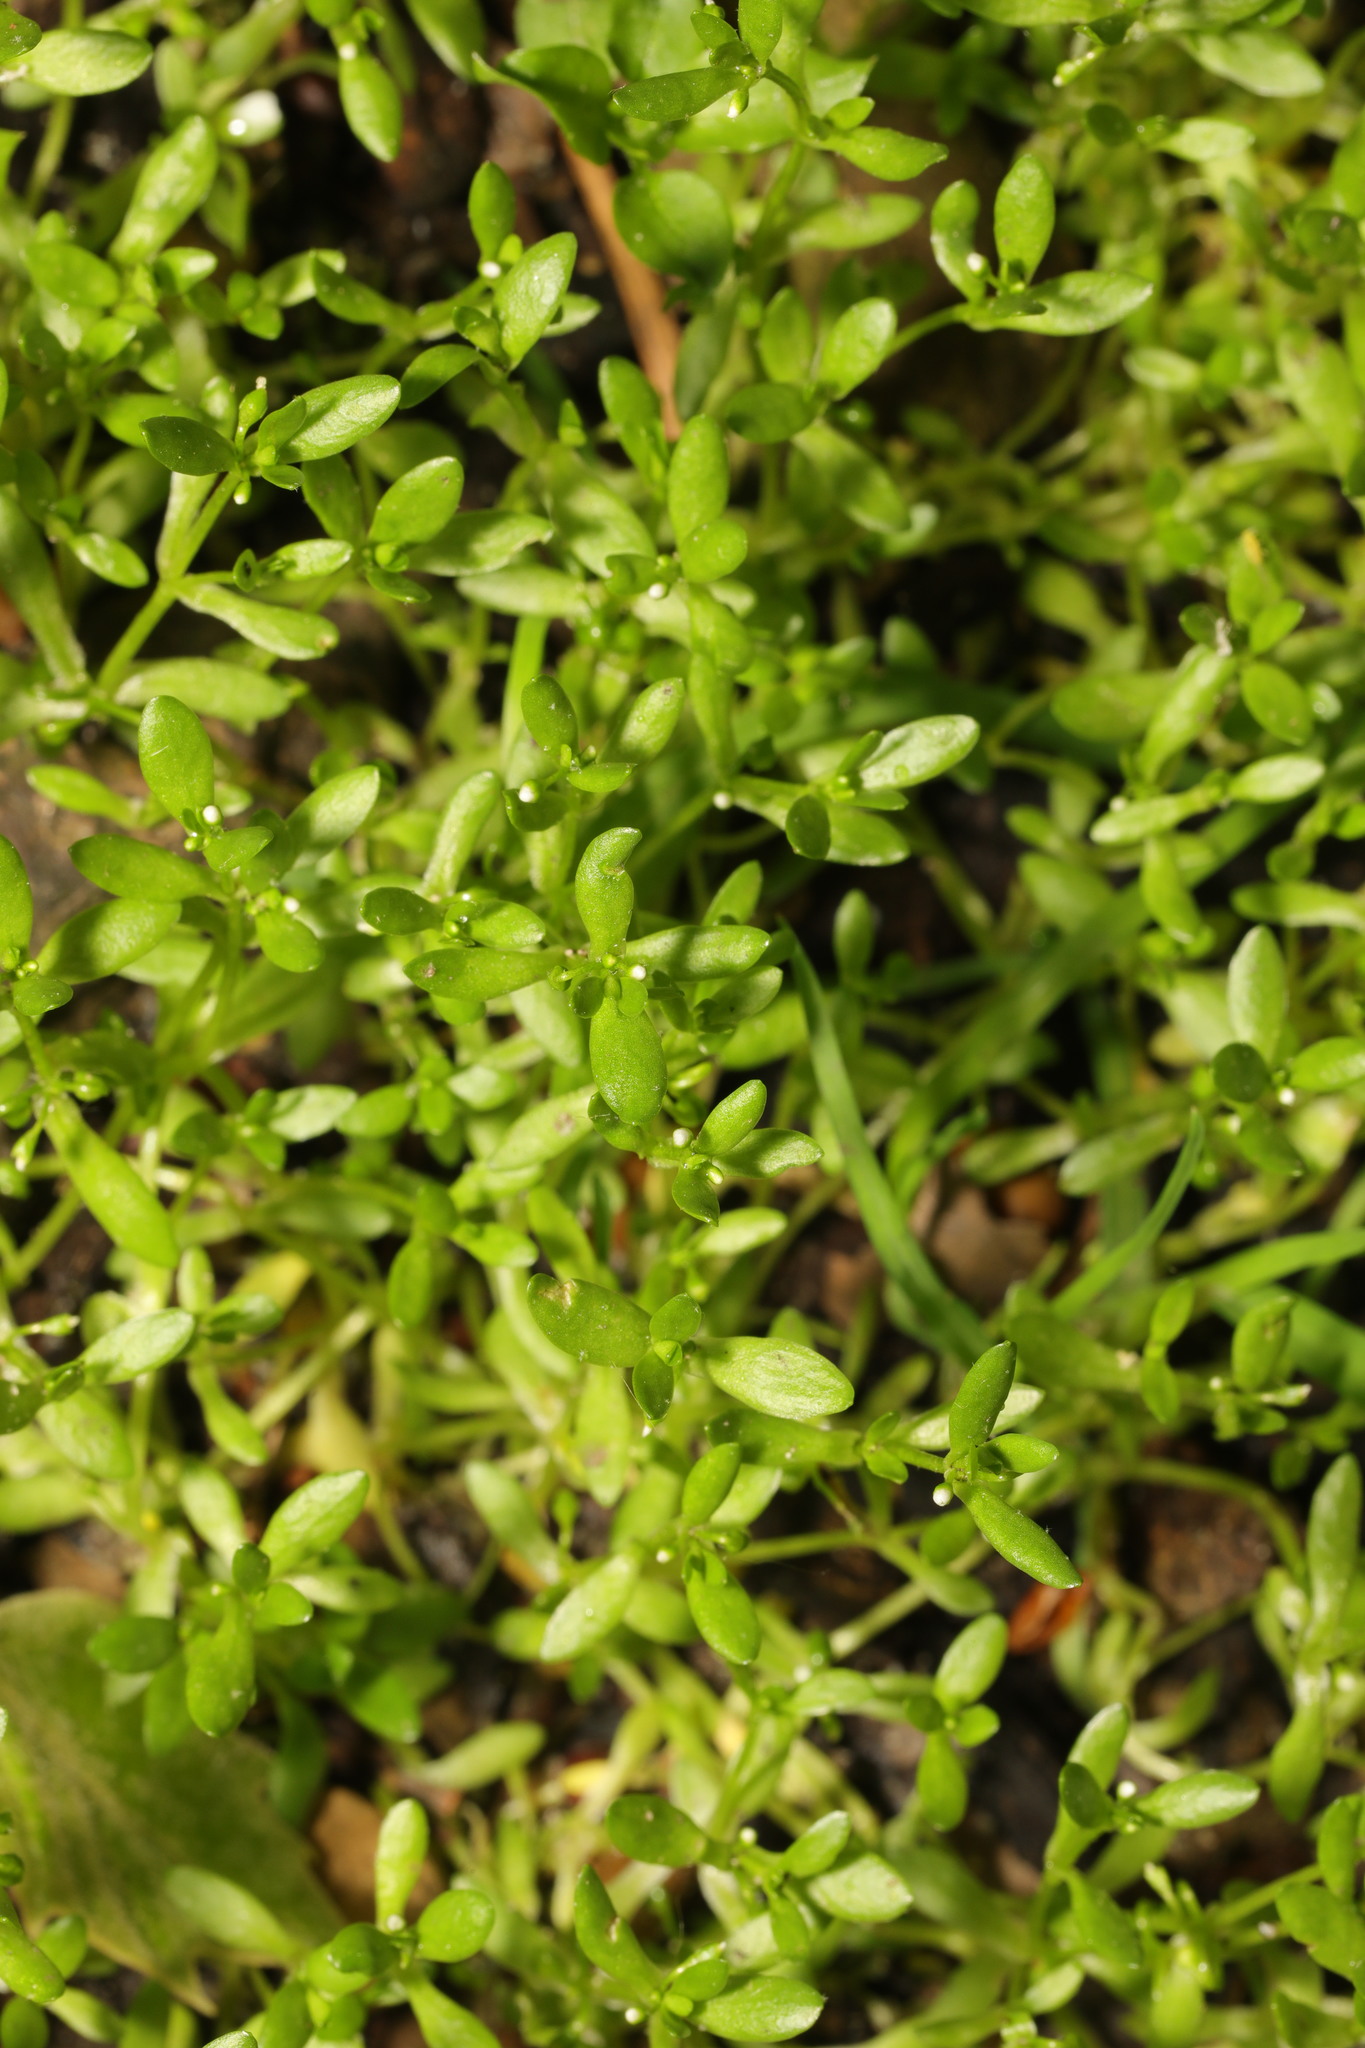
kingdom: Plantae
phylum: Tracheophyta
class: Magnoliopsida
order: Caryophyllales
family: Montiaceae
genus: Montia
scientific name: Montia fontana
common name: Blinks
